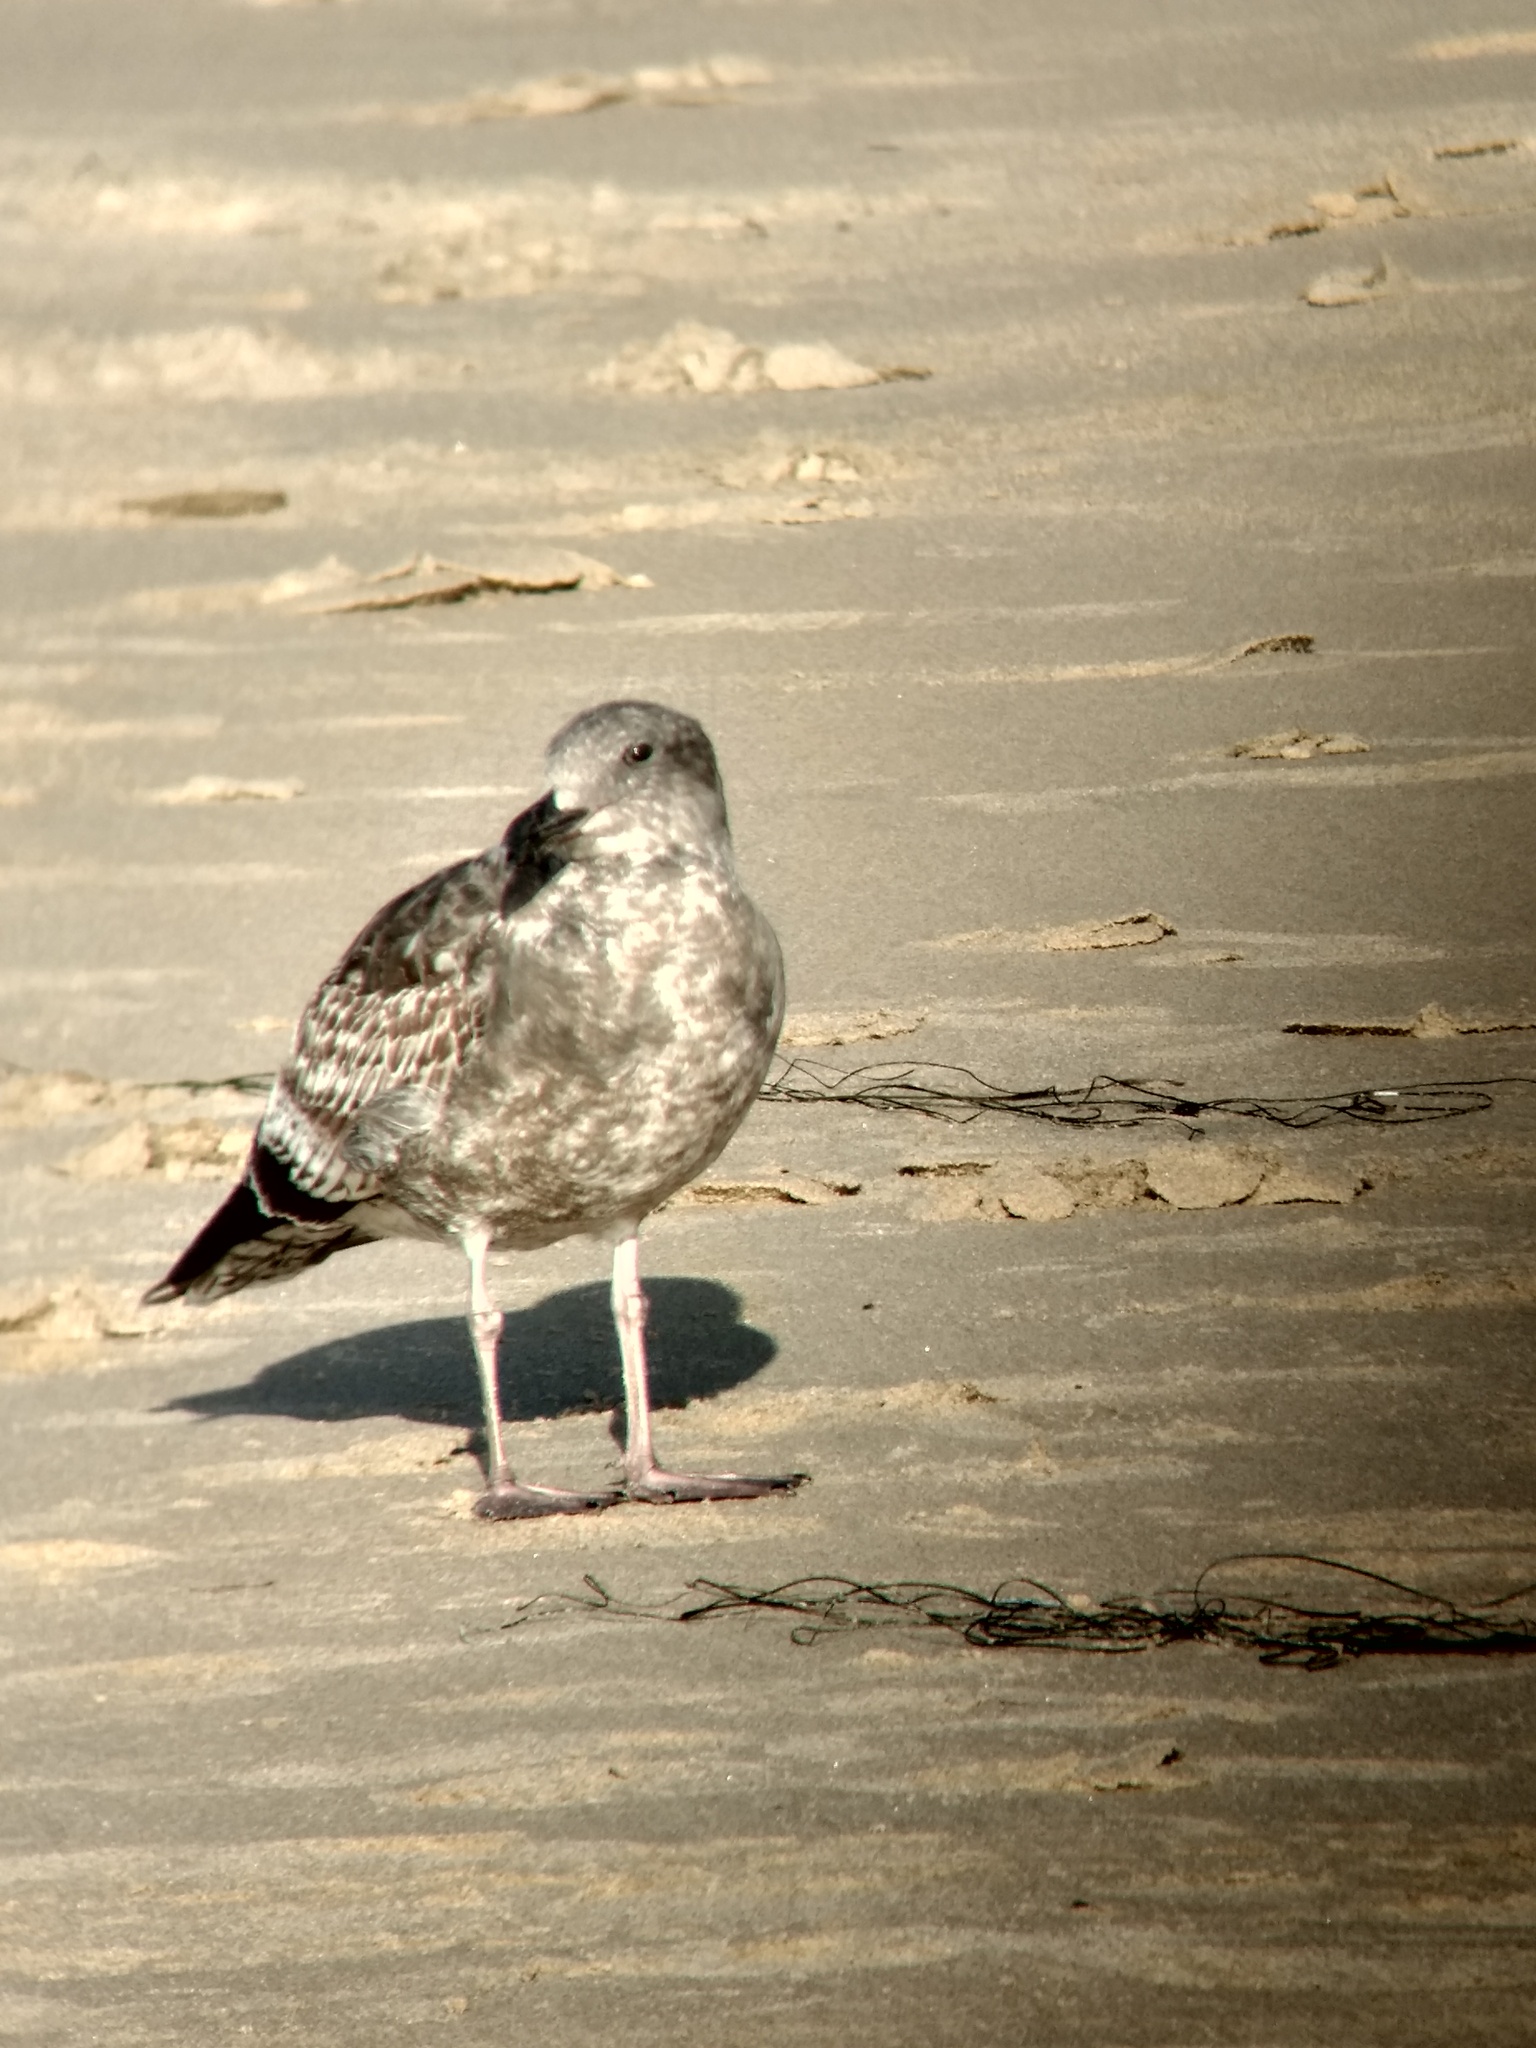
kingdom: Animalia
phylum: Chordata
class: Aves
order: Charadriiformes
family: Laridae
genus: Larus
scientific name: Larus occidentalis
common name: Western gull
